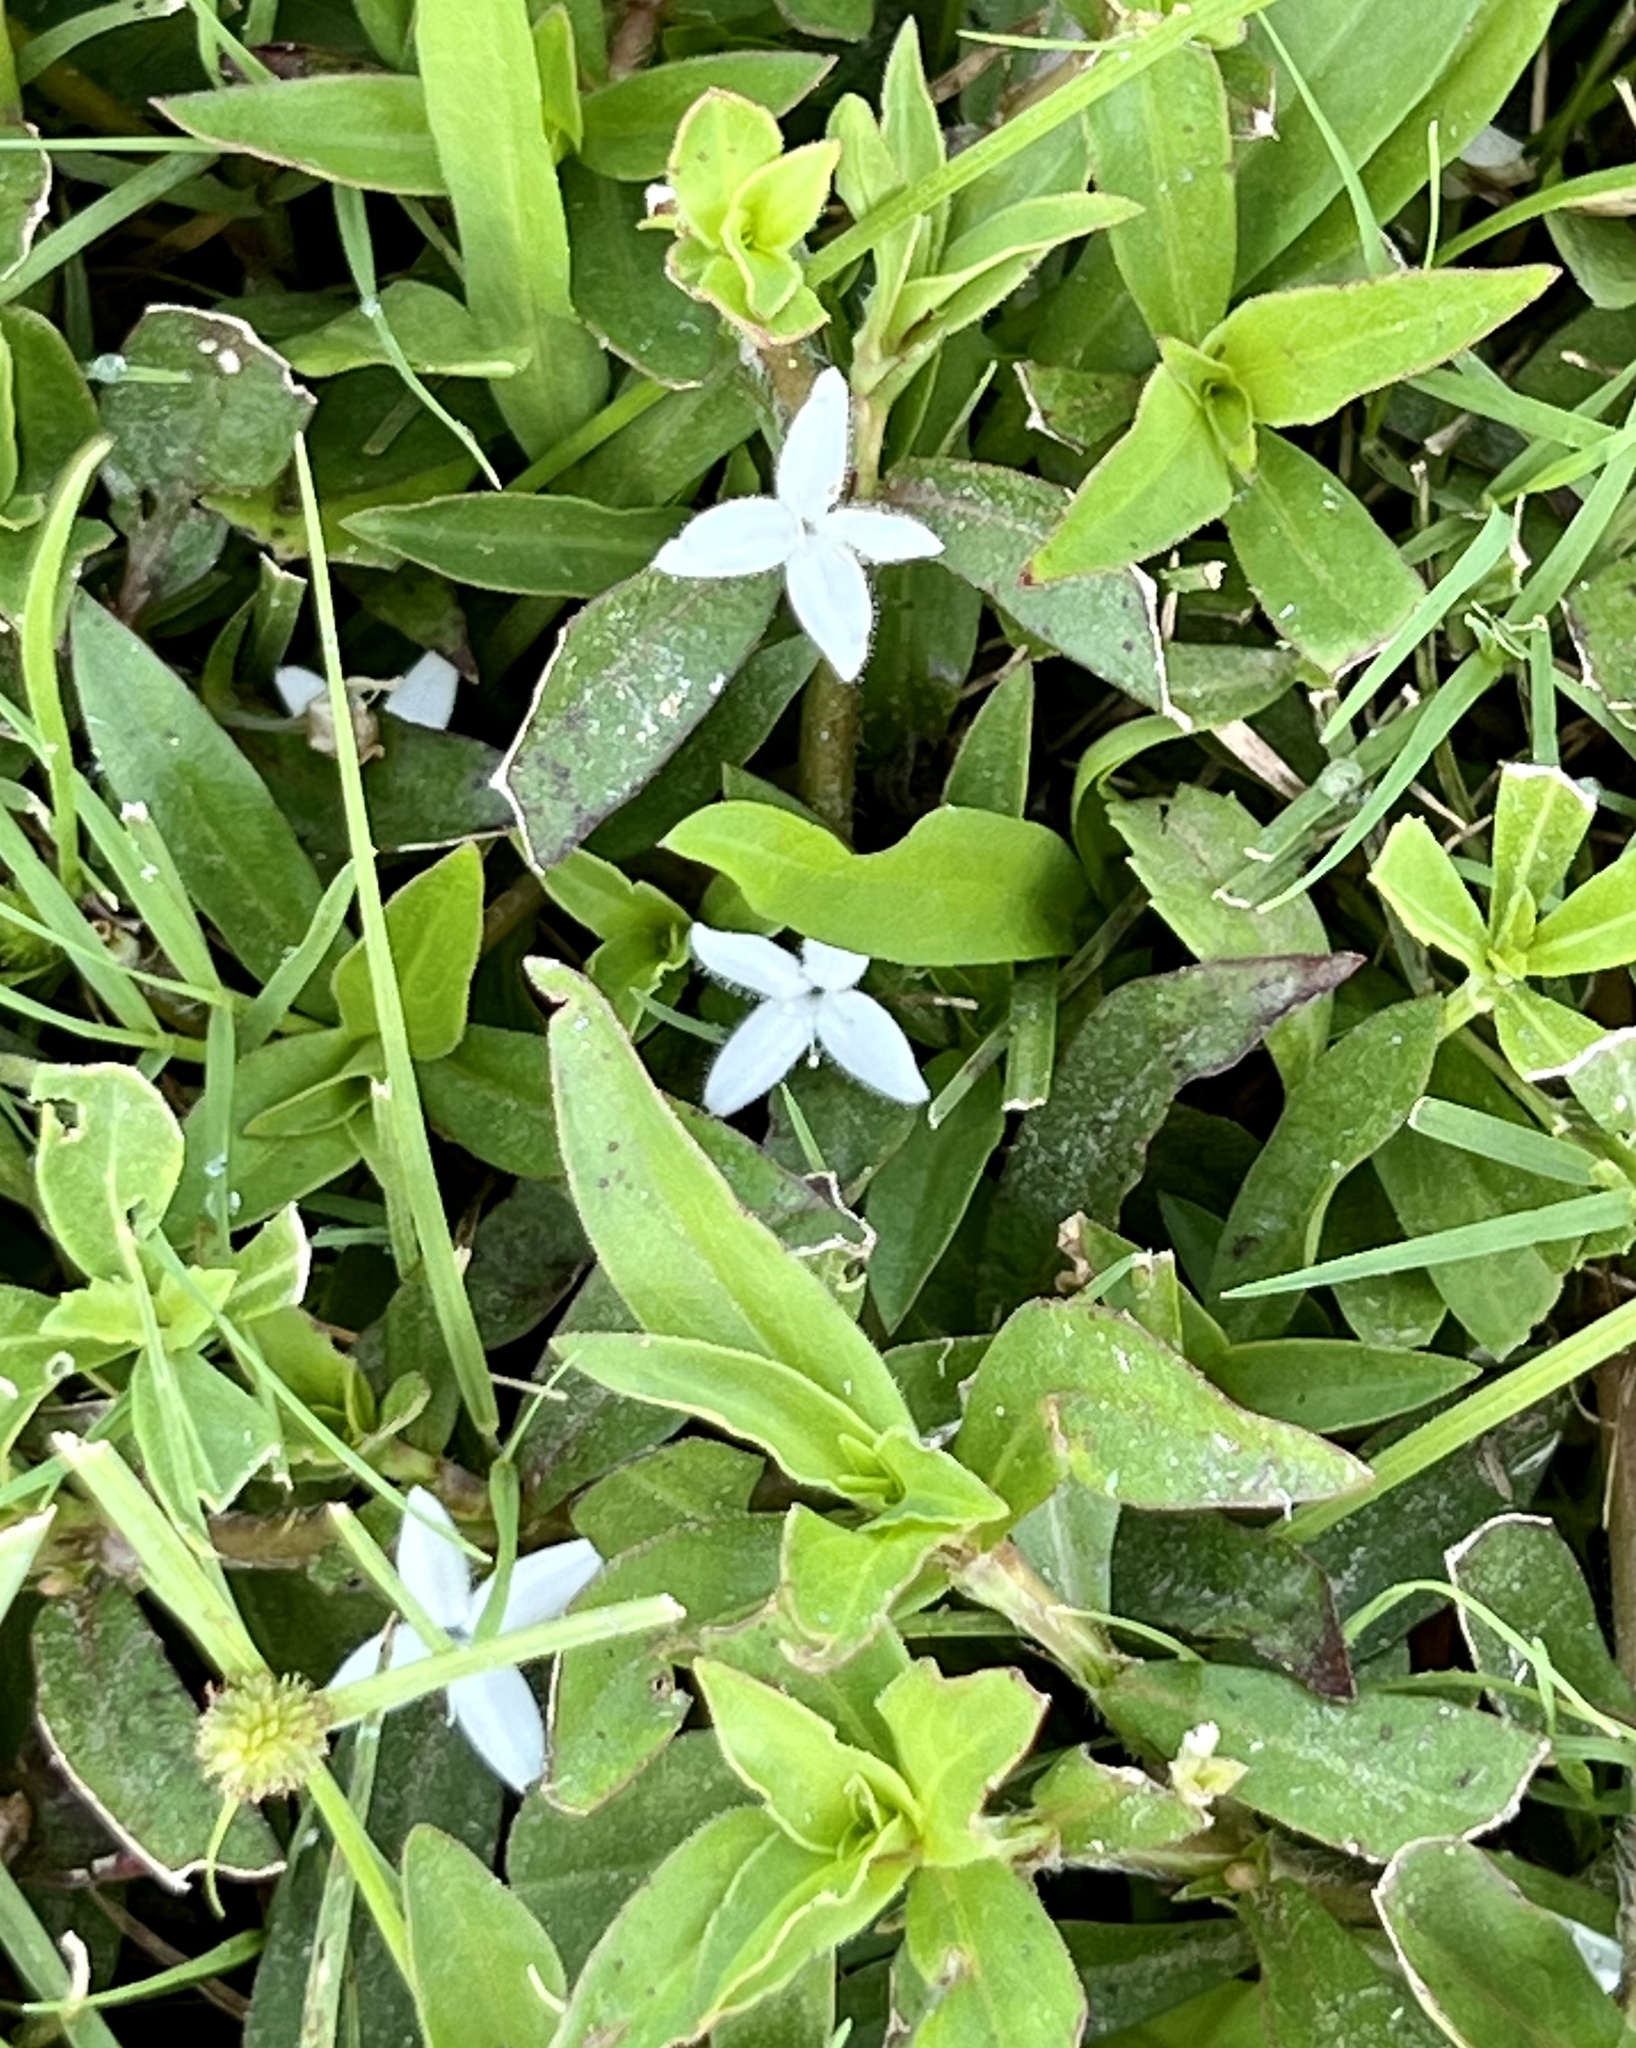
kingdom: Plantae
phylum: Tracheophyta
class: Magnoliopsida
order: Gentianales
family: Rubiaceae
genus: Diodia
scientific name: Diodia virginiana
